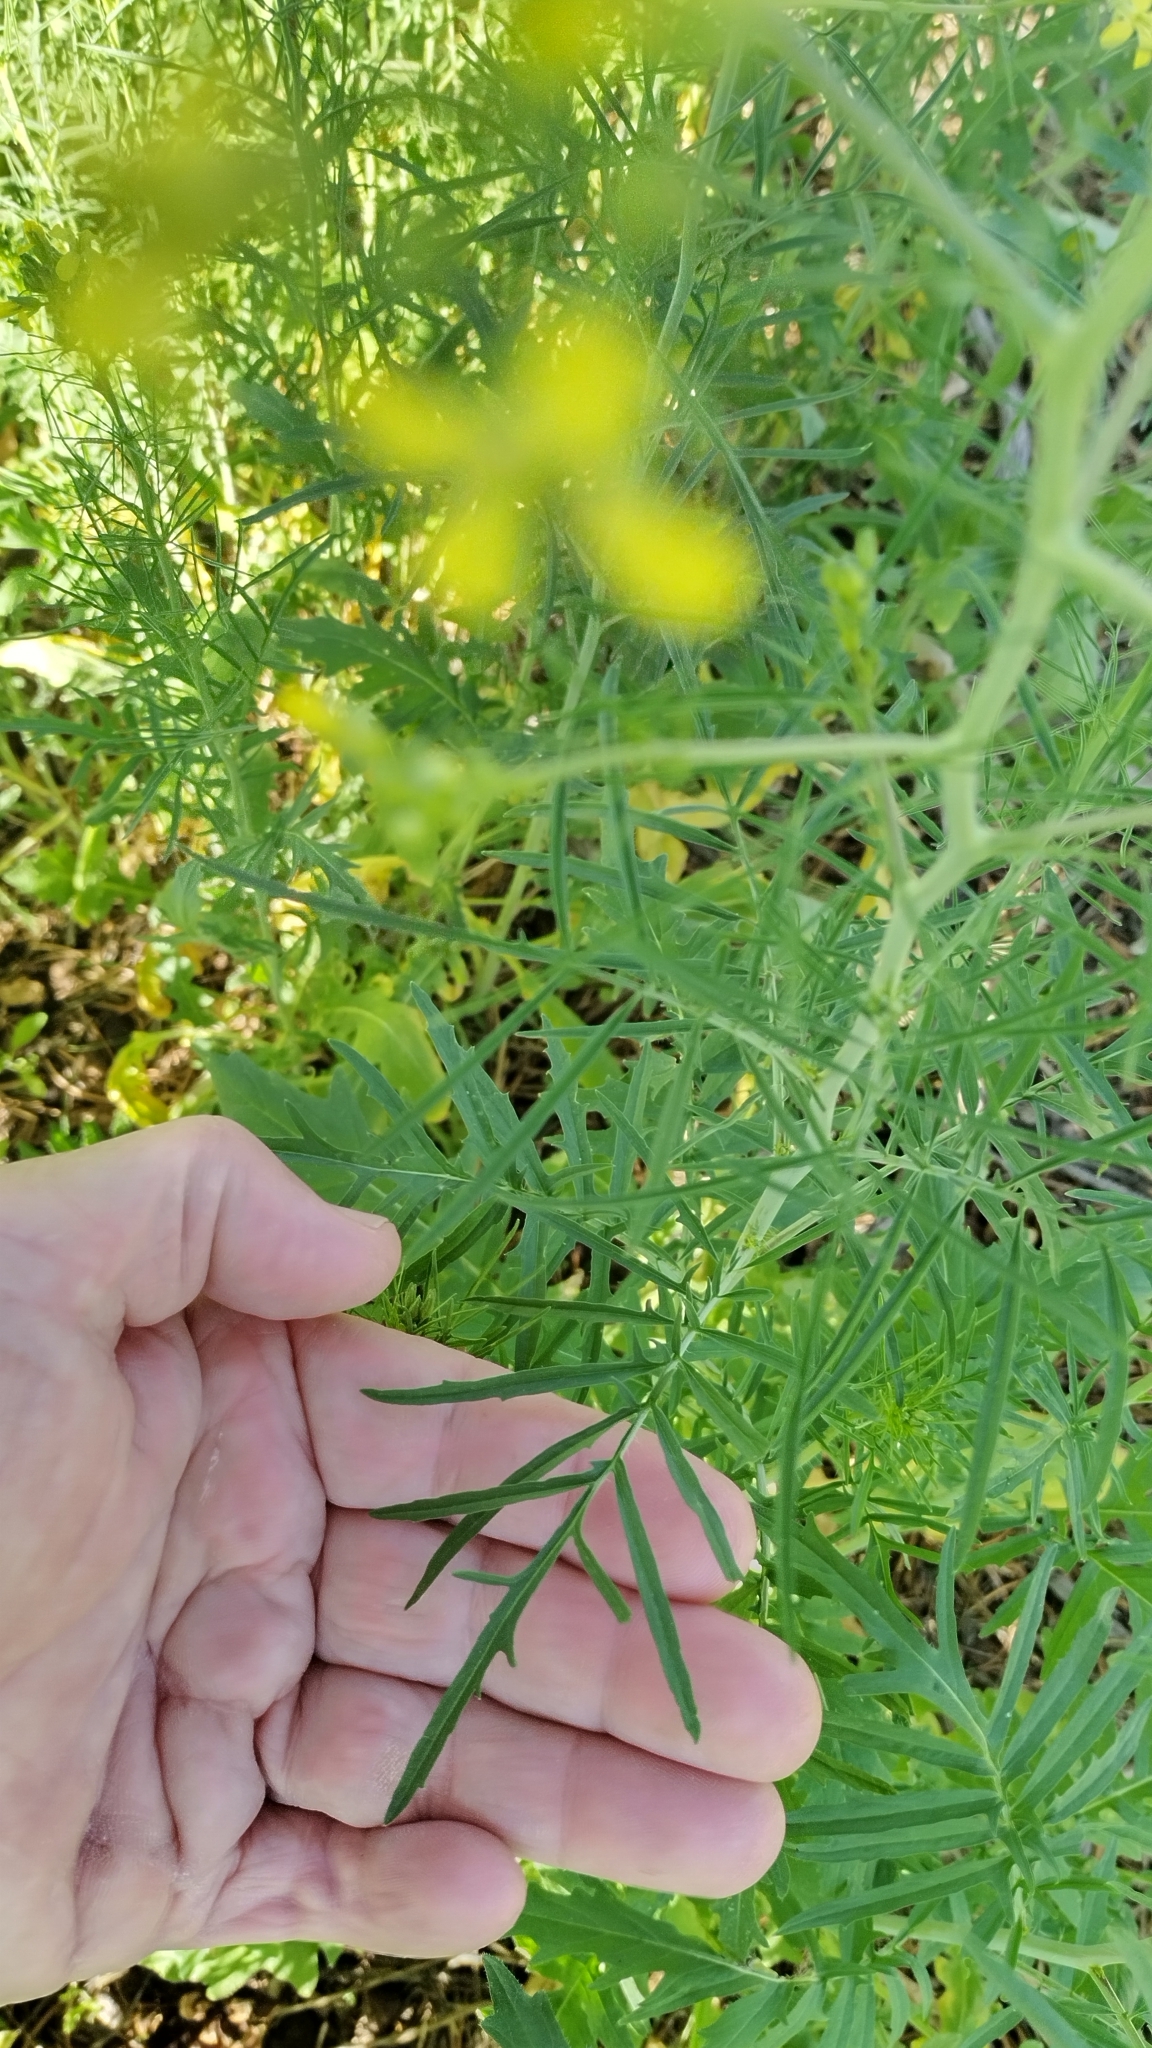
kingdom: Plantae
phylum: Tracheophyta
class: Magnoliopsida
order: Brassicales
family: Brassicaceae
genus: Sisymbrium
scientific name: Sisymbrium altissimum
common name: Tall rocket
